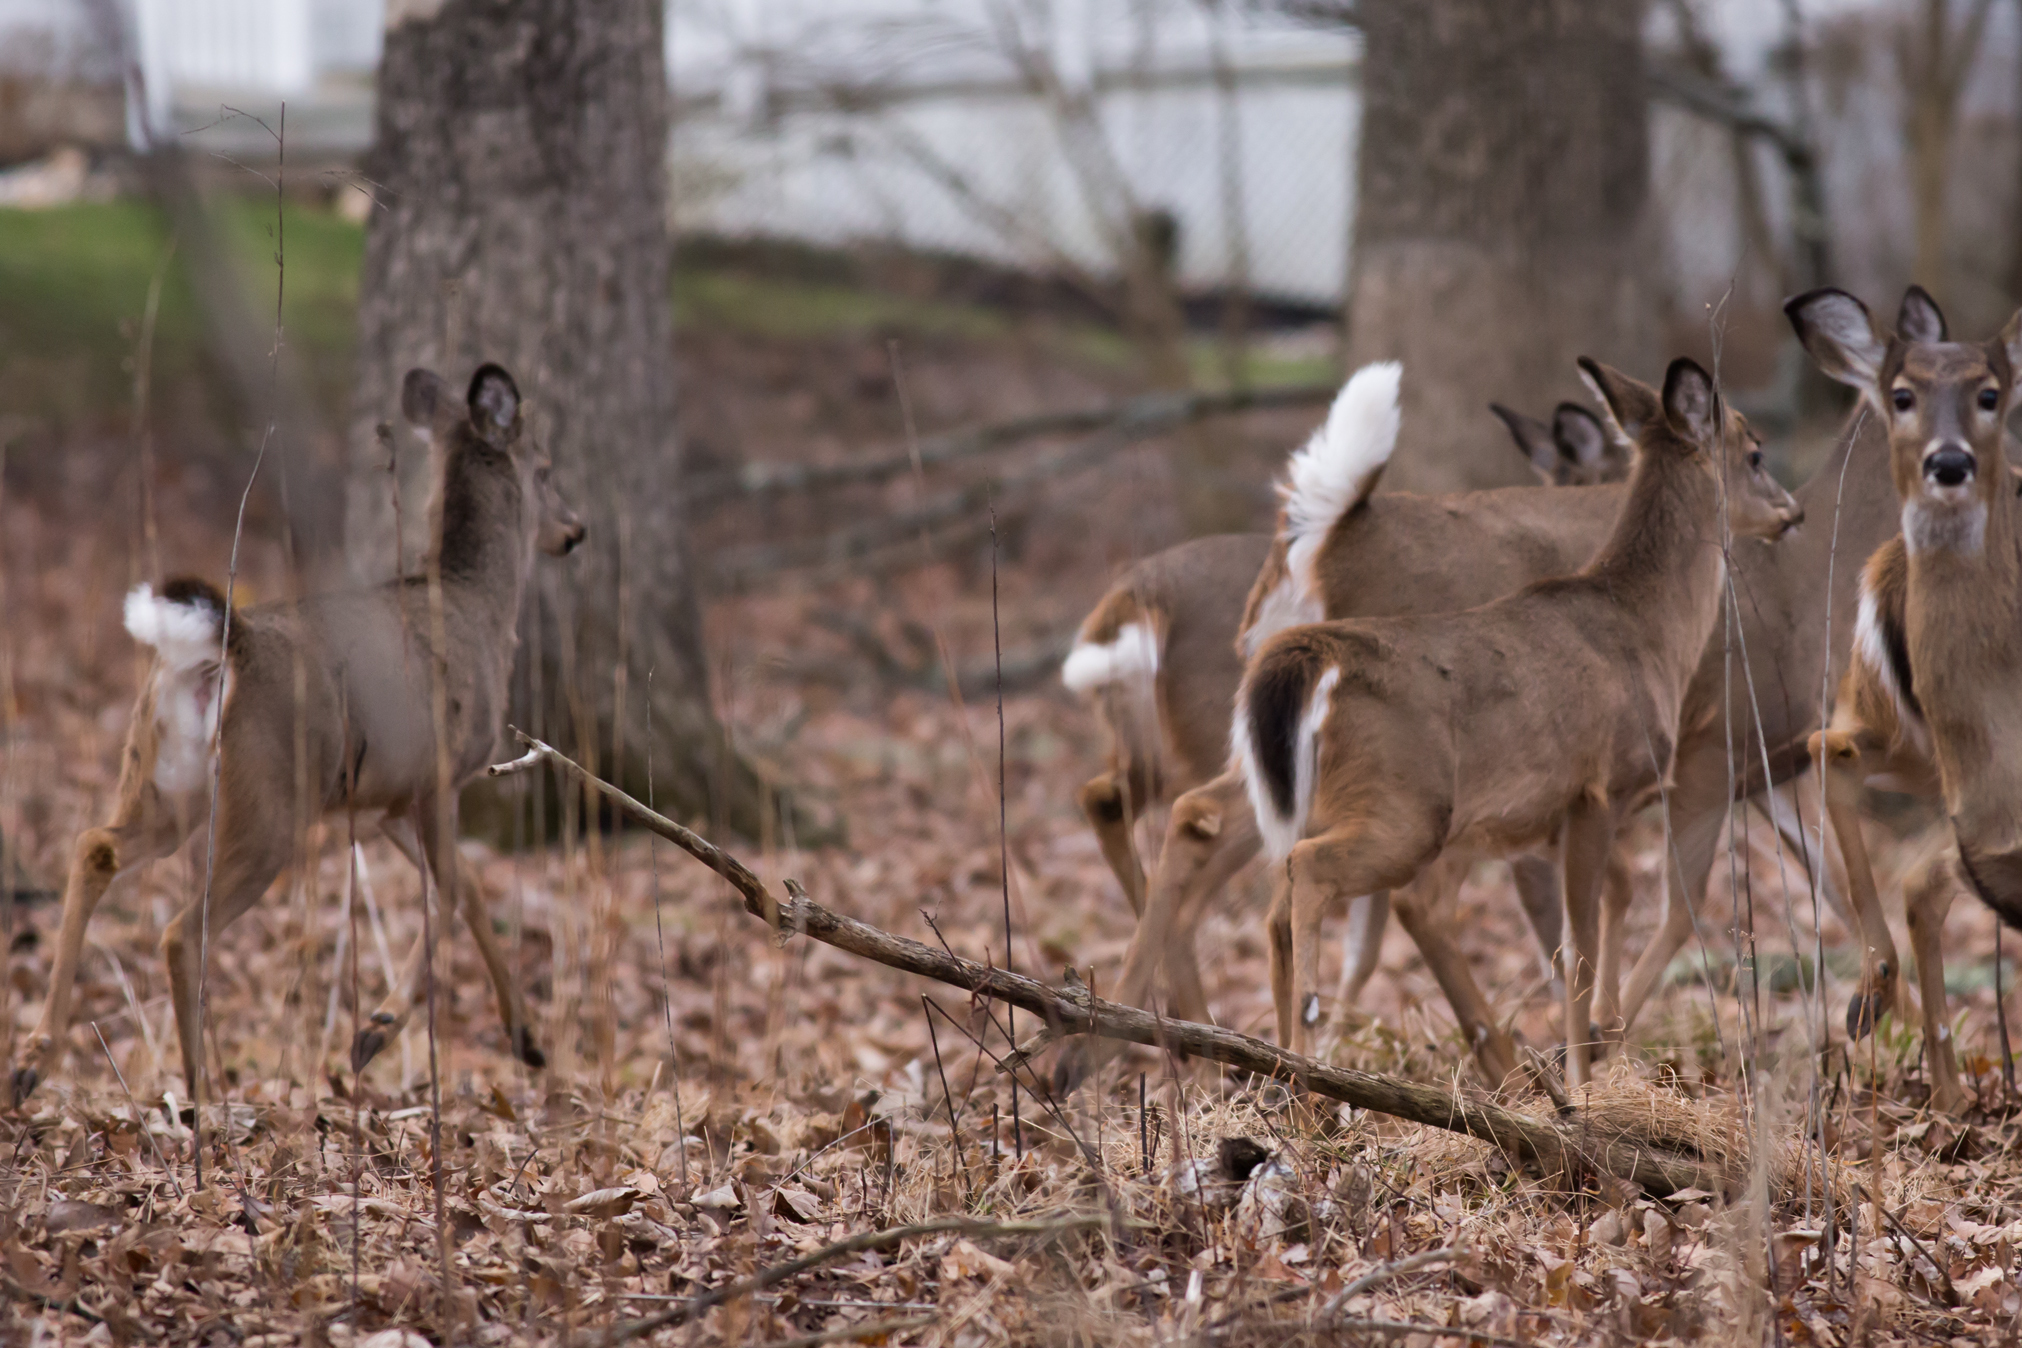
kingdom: Animalia
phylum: Chordata
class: Mammalia
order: Artiodactyla
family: Cervidae
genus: Odocoileus
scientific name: Odocoileus virginianus
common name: White-tailed deer
